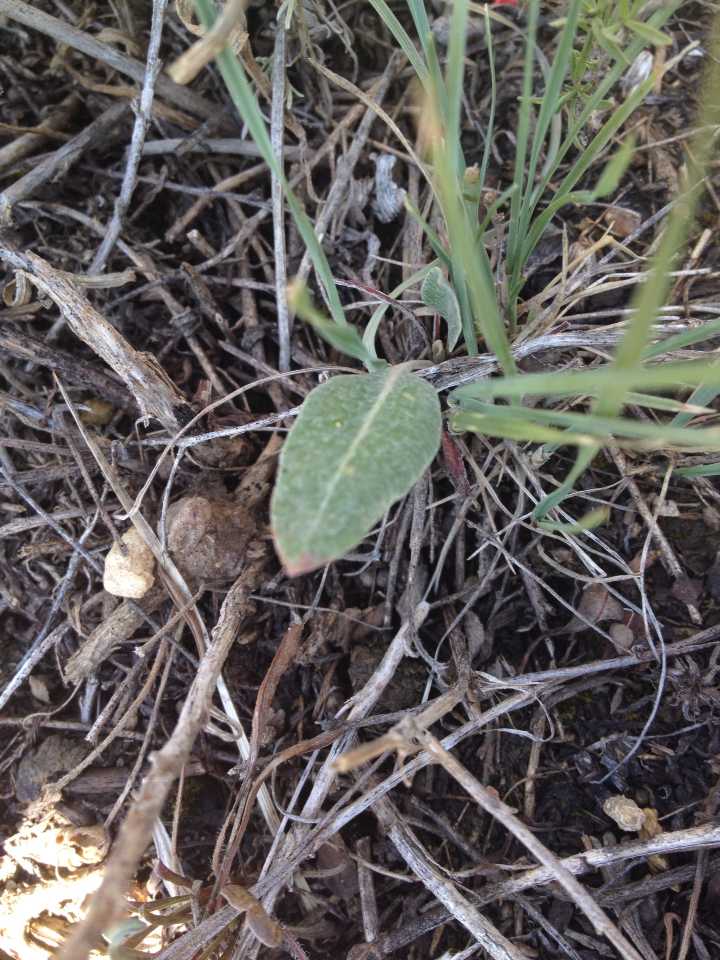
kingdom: Plantae
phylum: Tracheophyta
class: Magnoliopsida
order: Caryophyllales
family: Polygonaceae
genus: Eriogonum
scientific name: Eriogonum racemosum
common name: Redroot wild buckwheat
